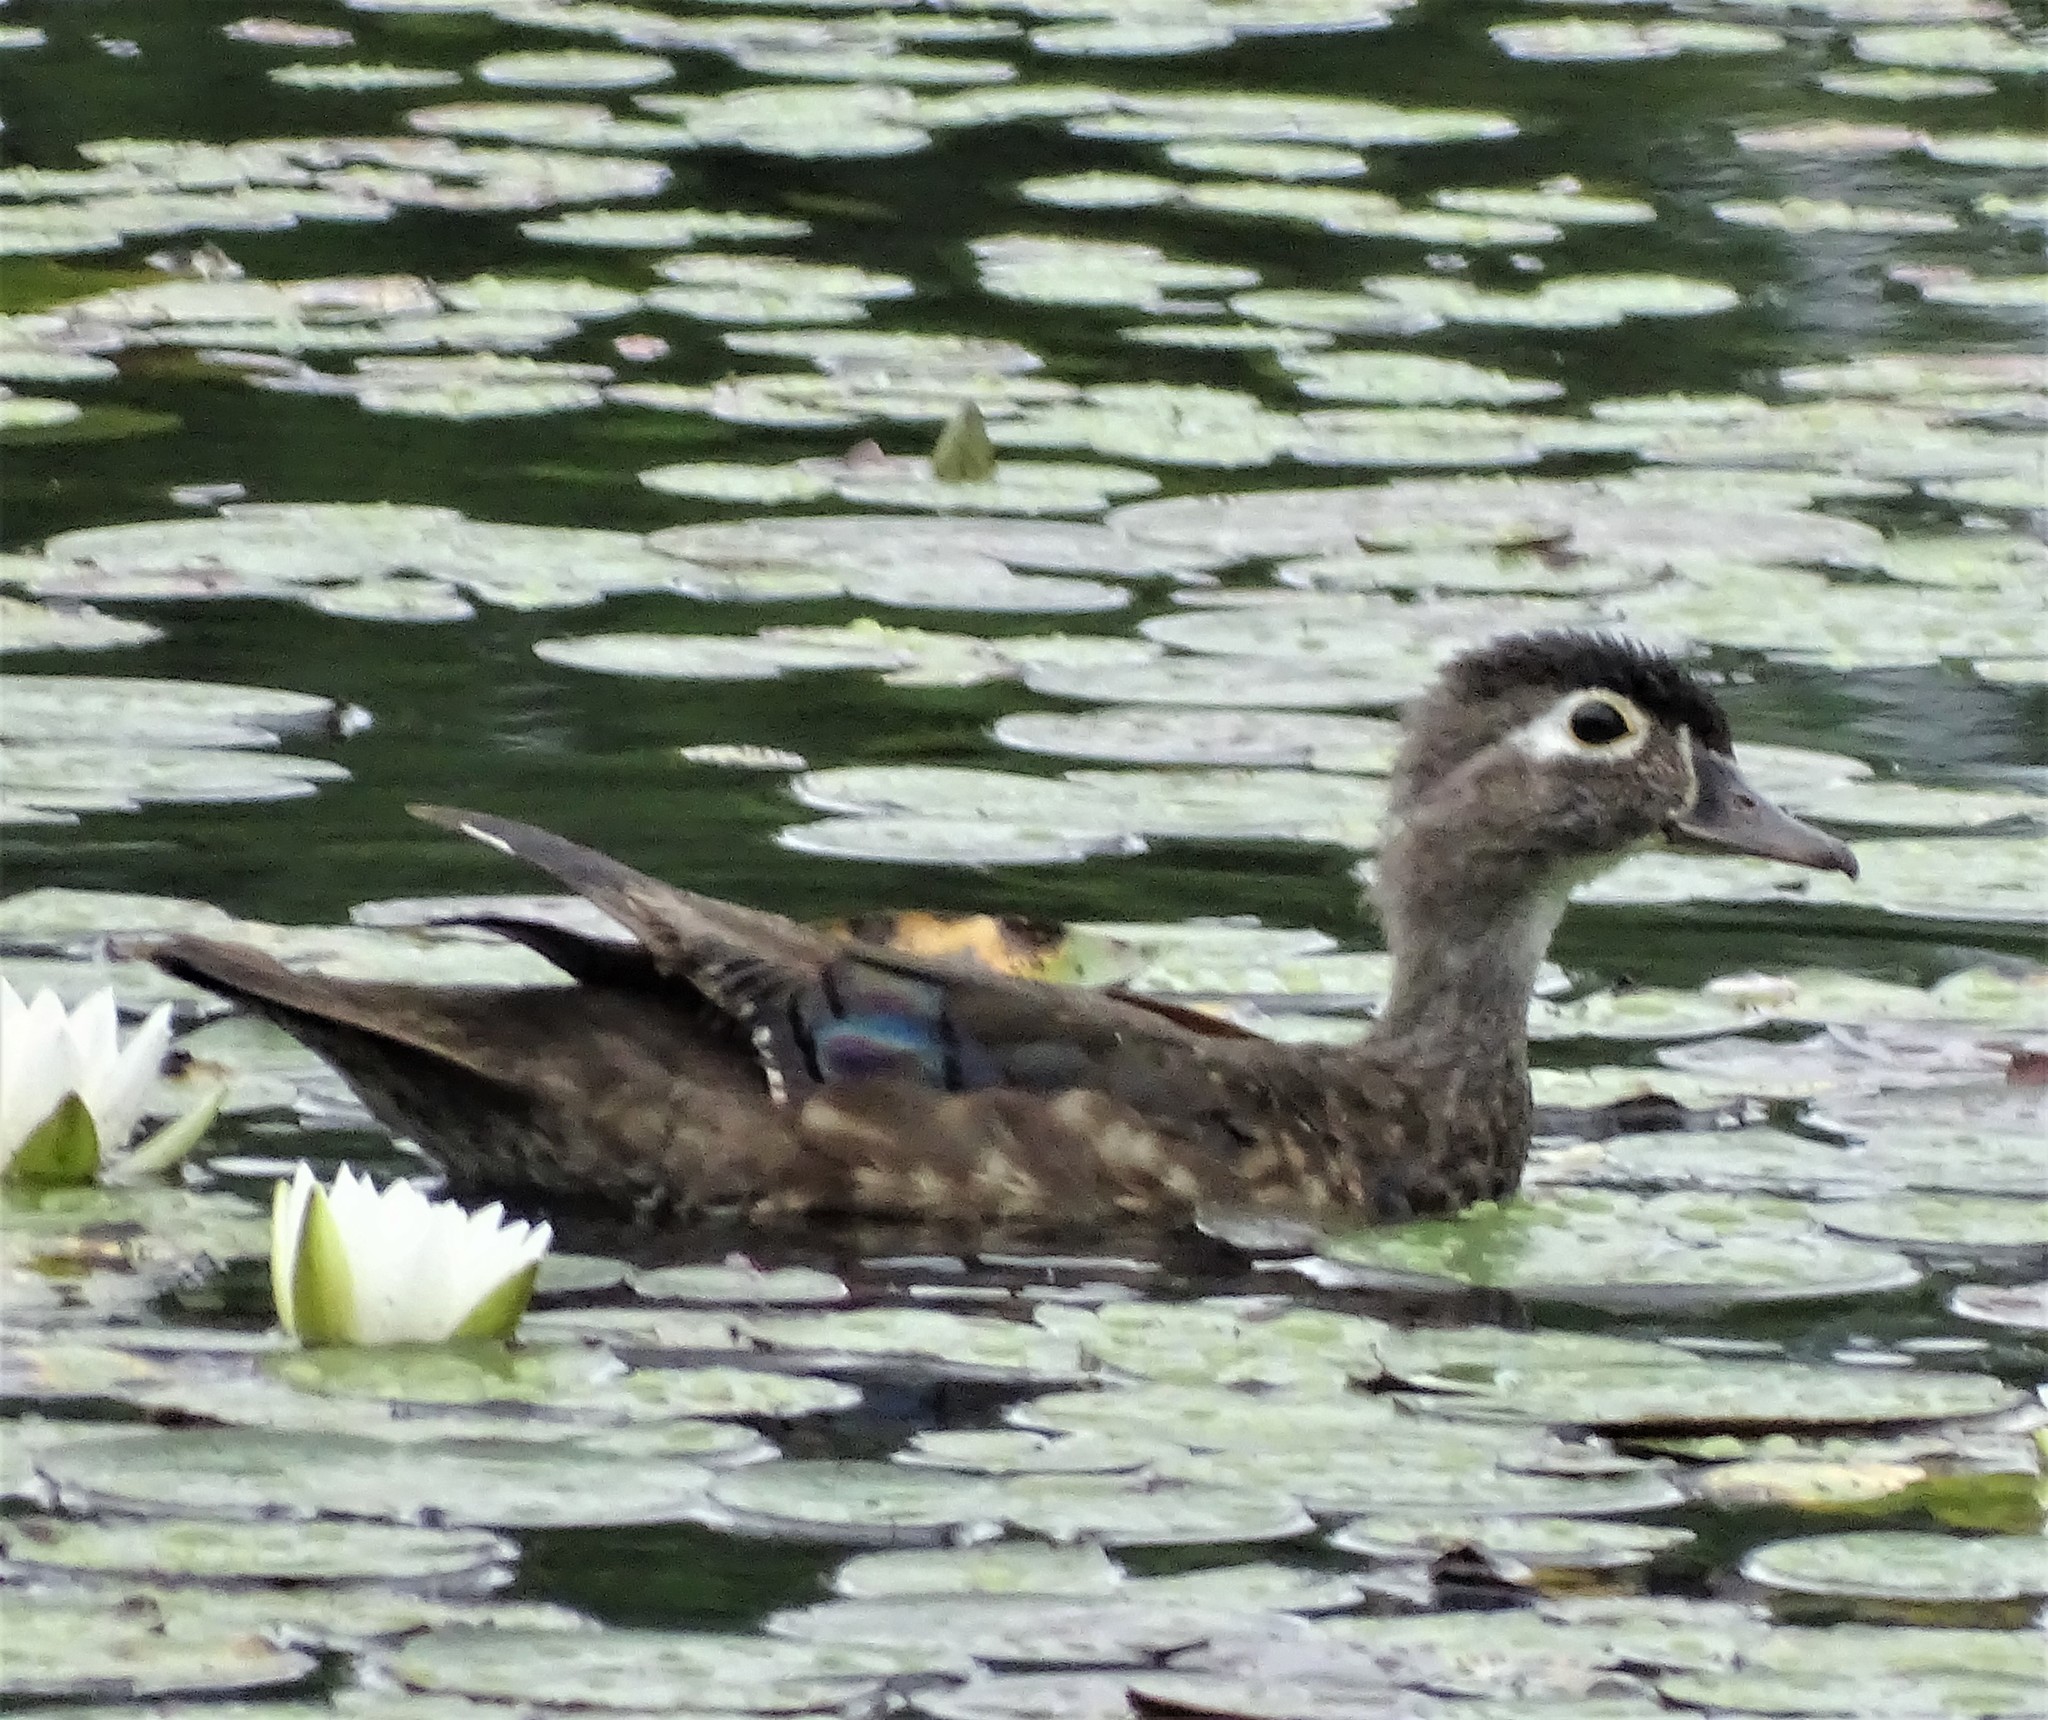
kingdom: Animalia
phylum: Chordata
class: Aves
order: Anseriformes
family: Anatidae
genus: Aix
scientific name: Aix sponsa
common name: Wood duck
